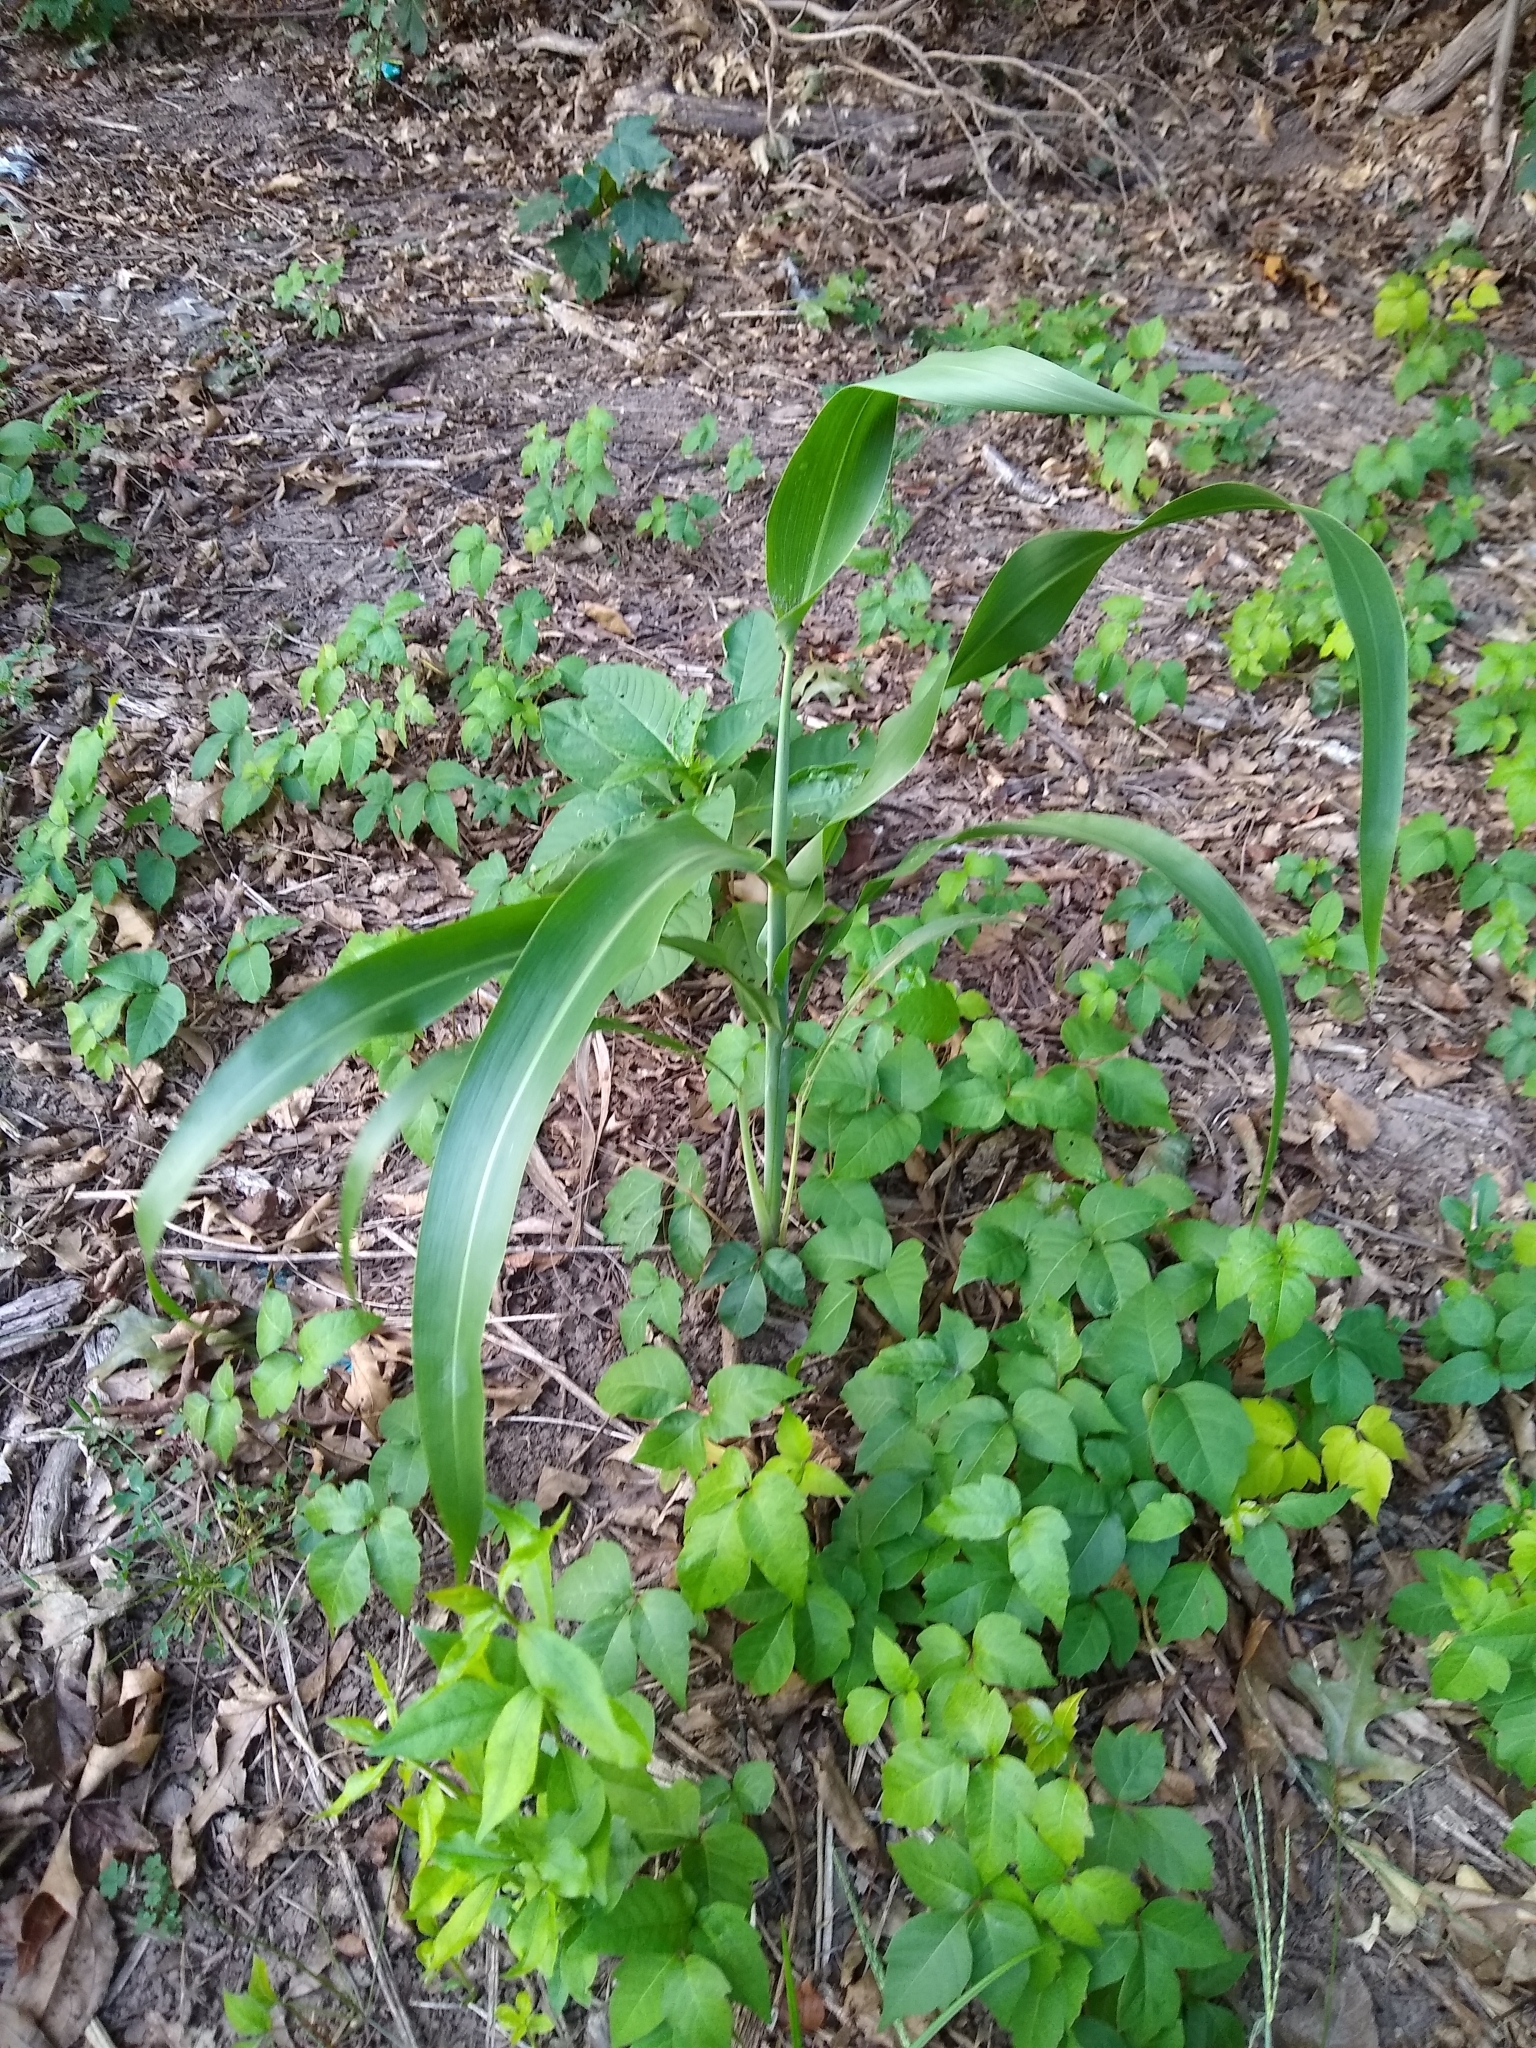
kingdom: Plantae
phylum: Tracheophyta
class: Liliopsida
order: Poales
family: Poaceae
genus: Zea
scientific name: Zea mays
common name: Maize
